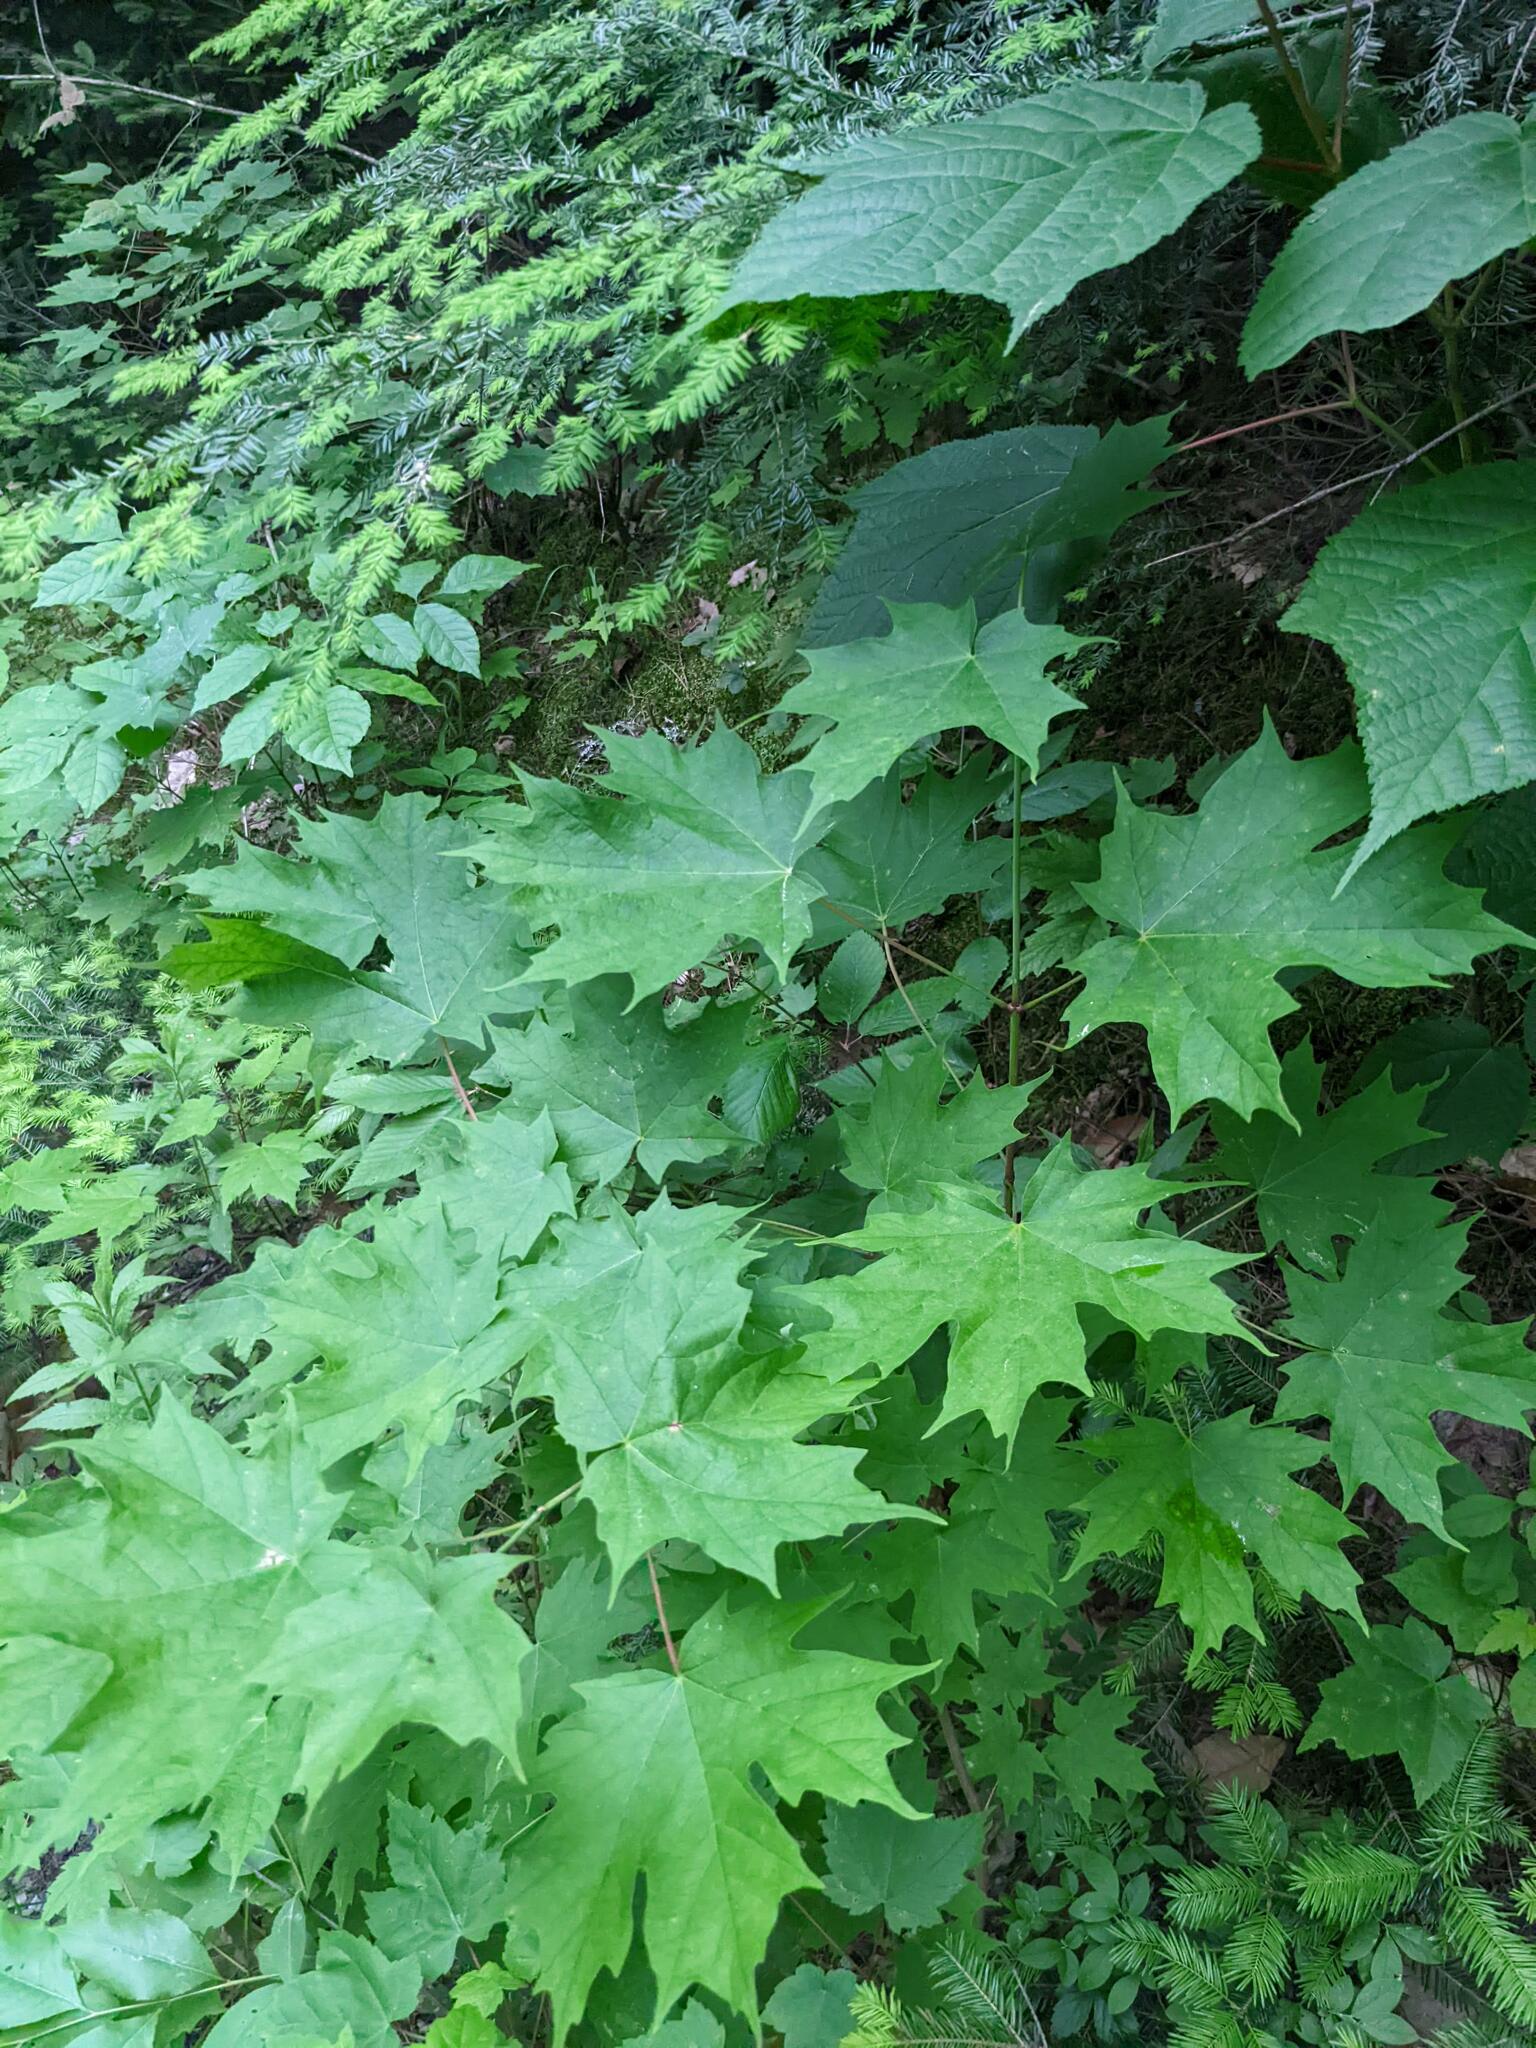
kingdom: Plantae
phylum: Tracheophyta
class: Magnoliopsida
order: Sapindales
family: Sapindaceae
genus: Acer
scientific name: Acer saccharum
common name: Sugar maple
